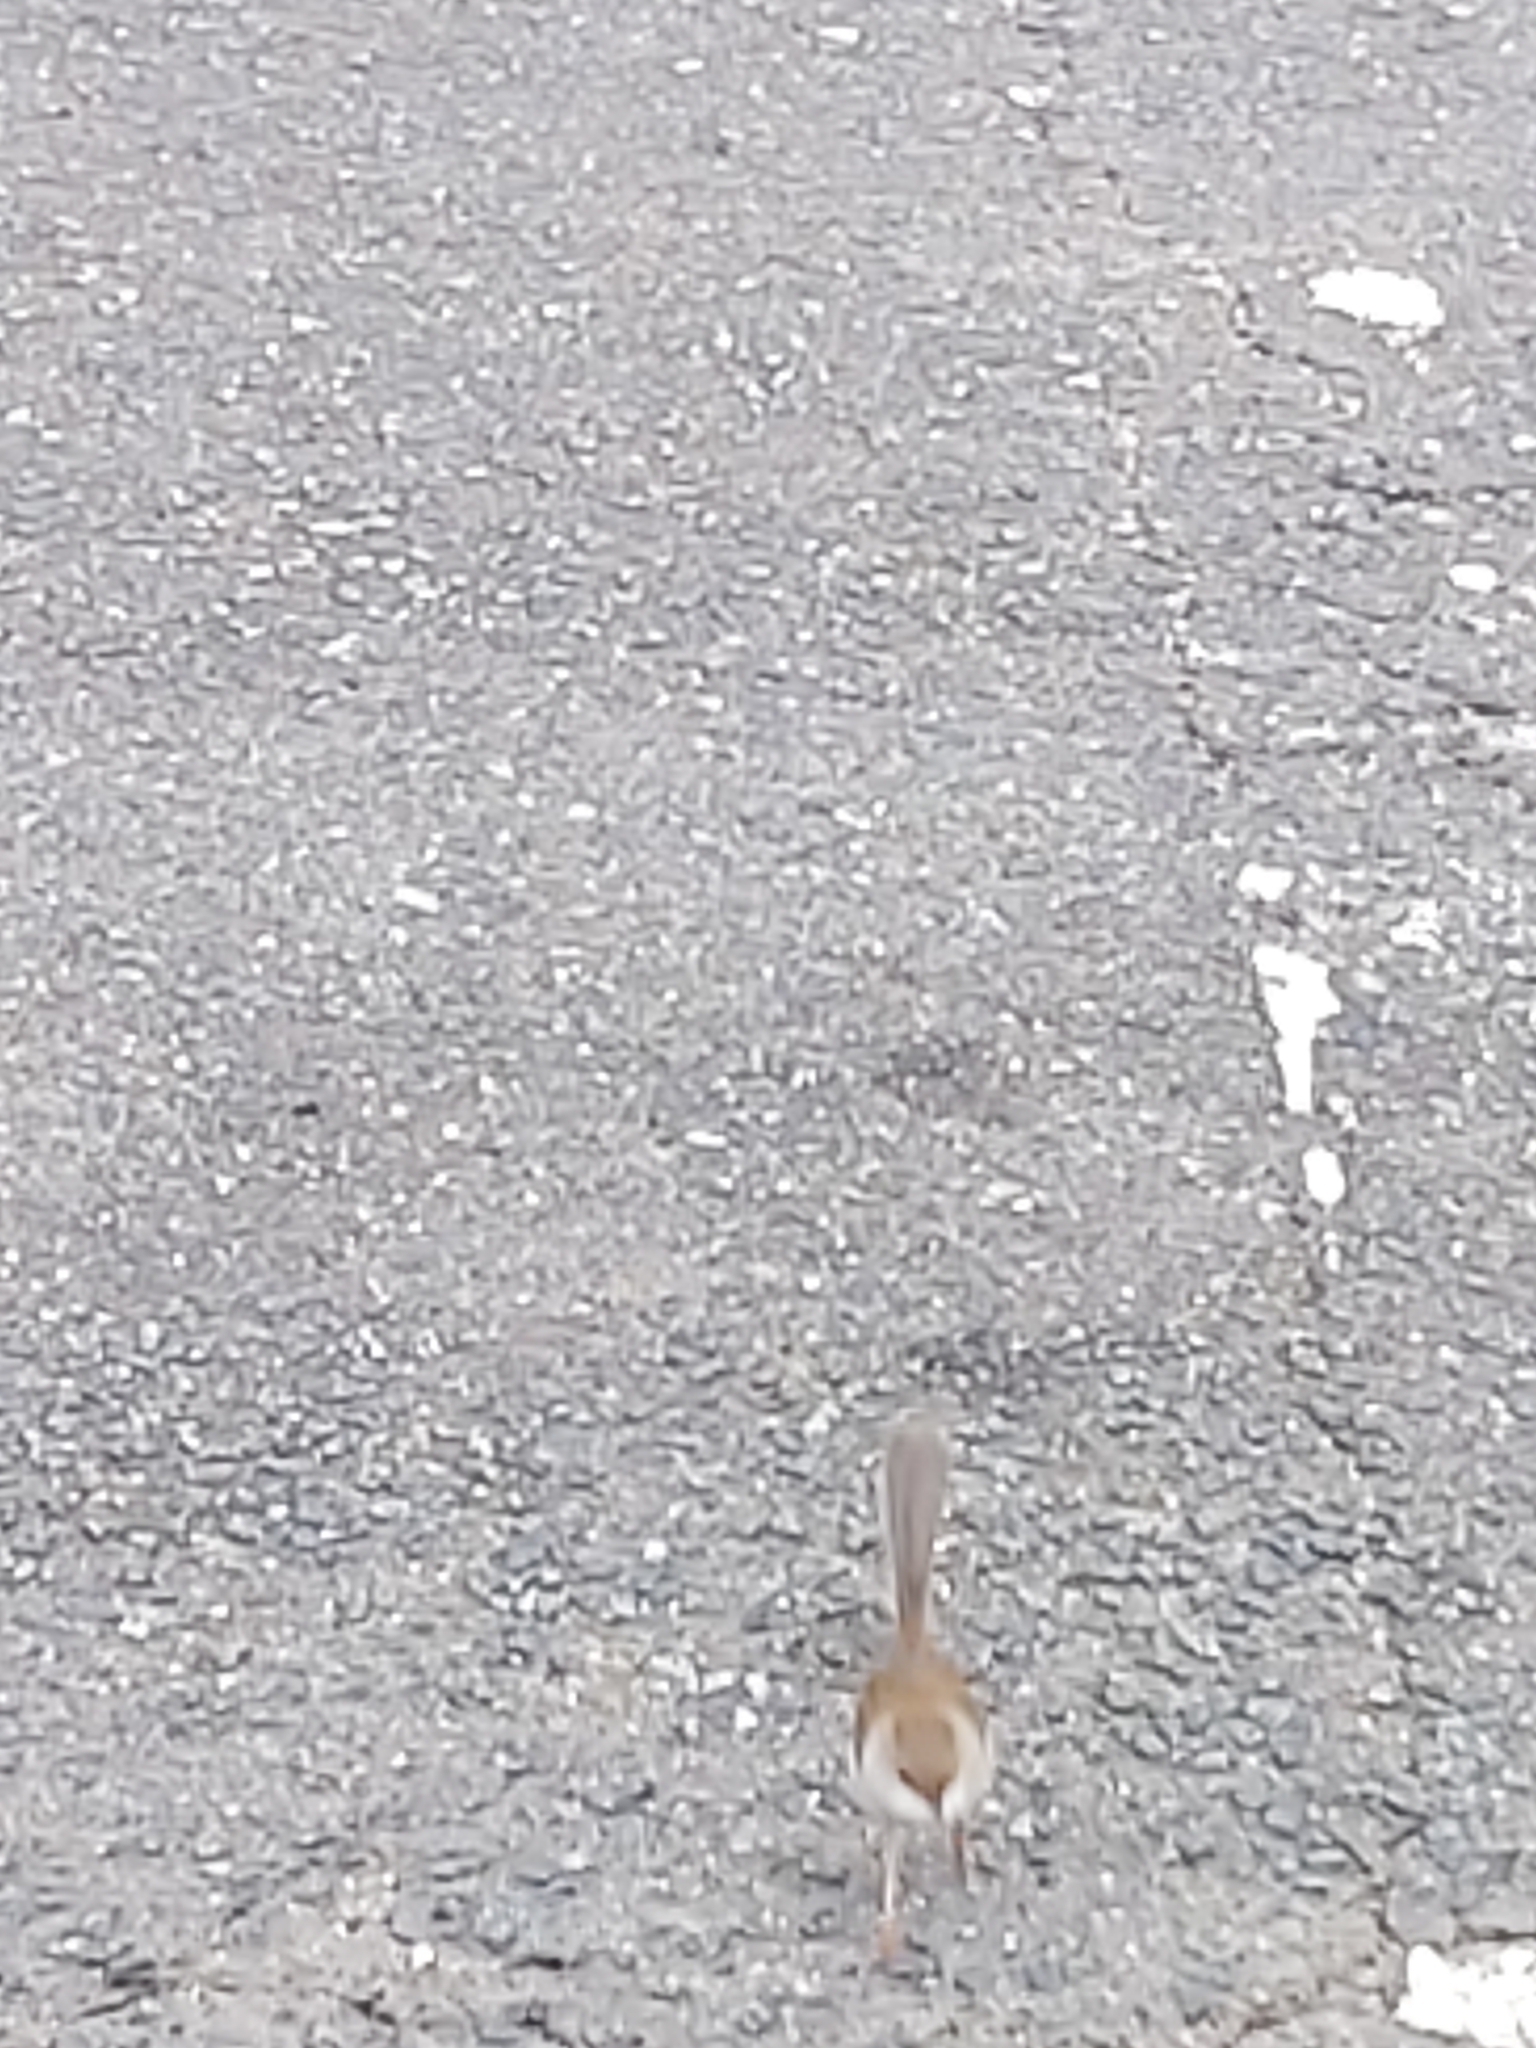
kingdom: Animalia
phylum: Chordata
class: Aves
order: Passeriformes
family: Maluridae
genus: Malurus
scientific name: Malurus cyaneus
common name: Superb fairywren
